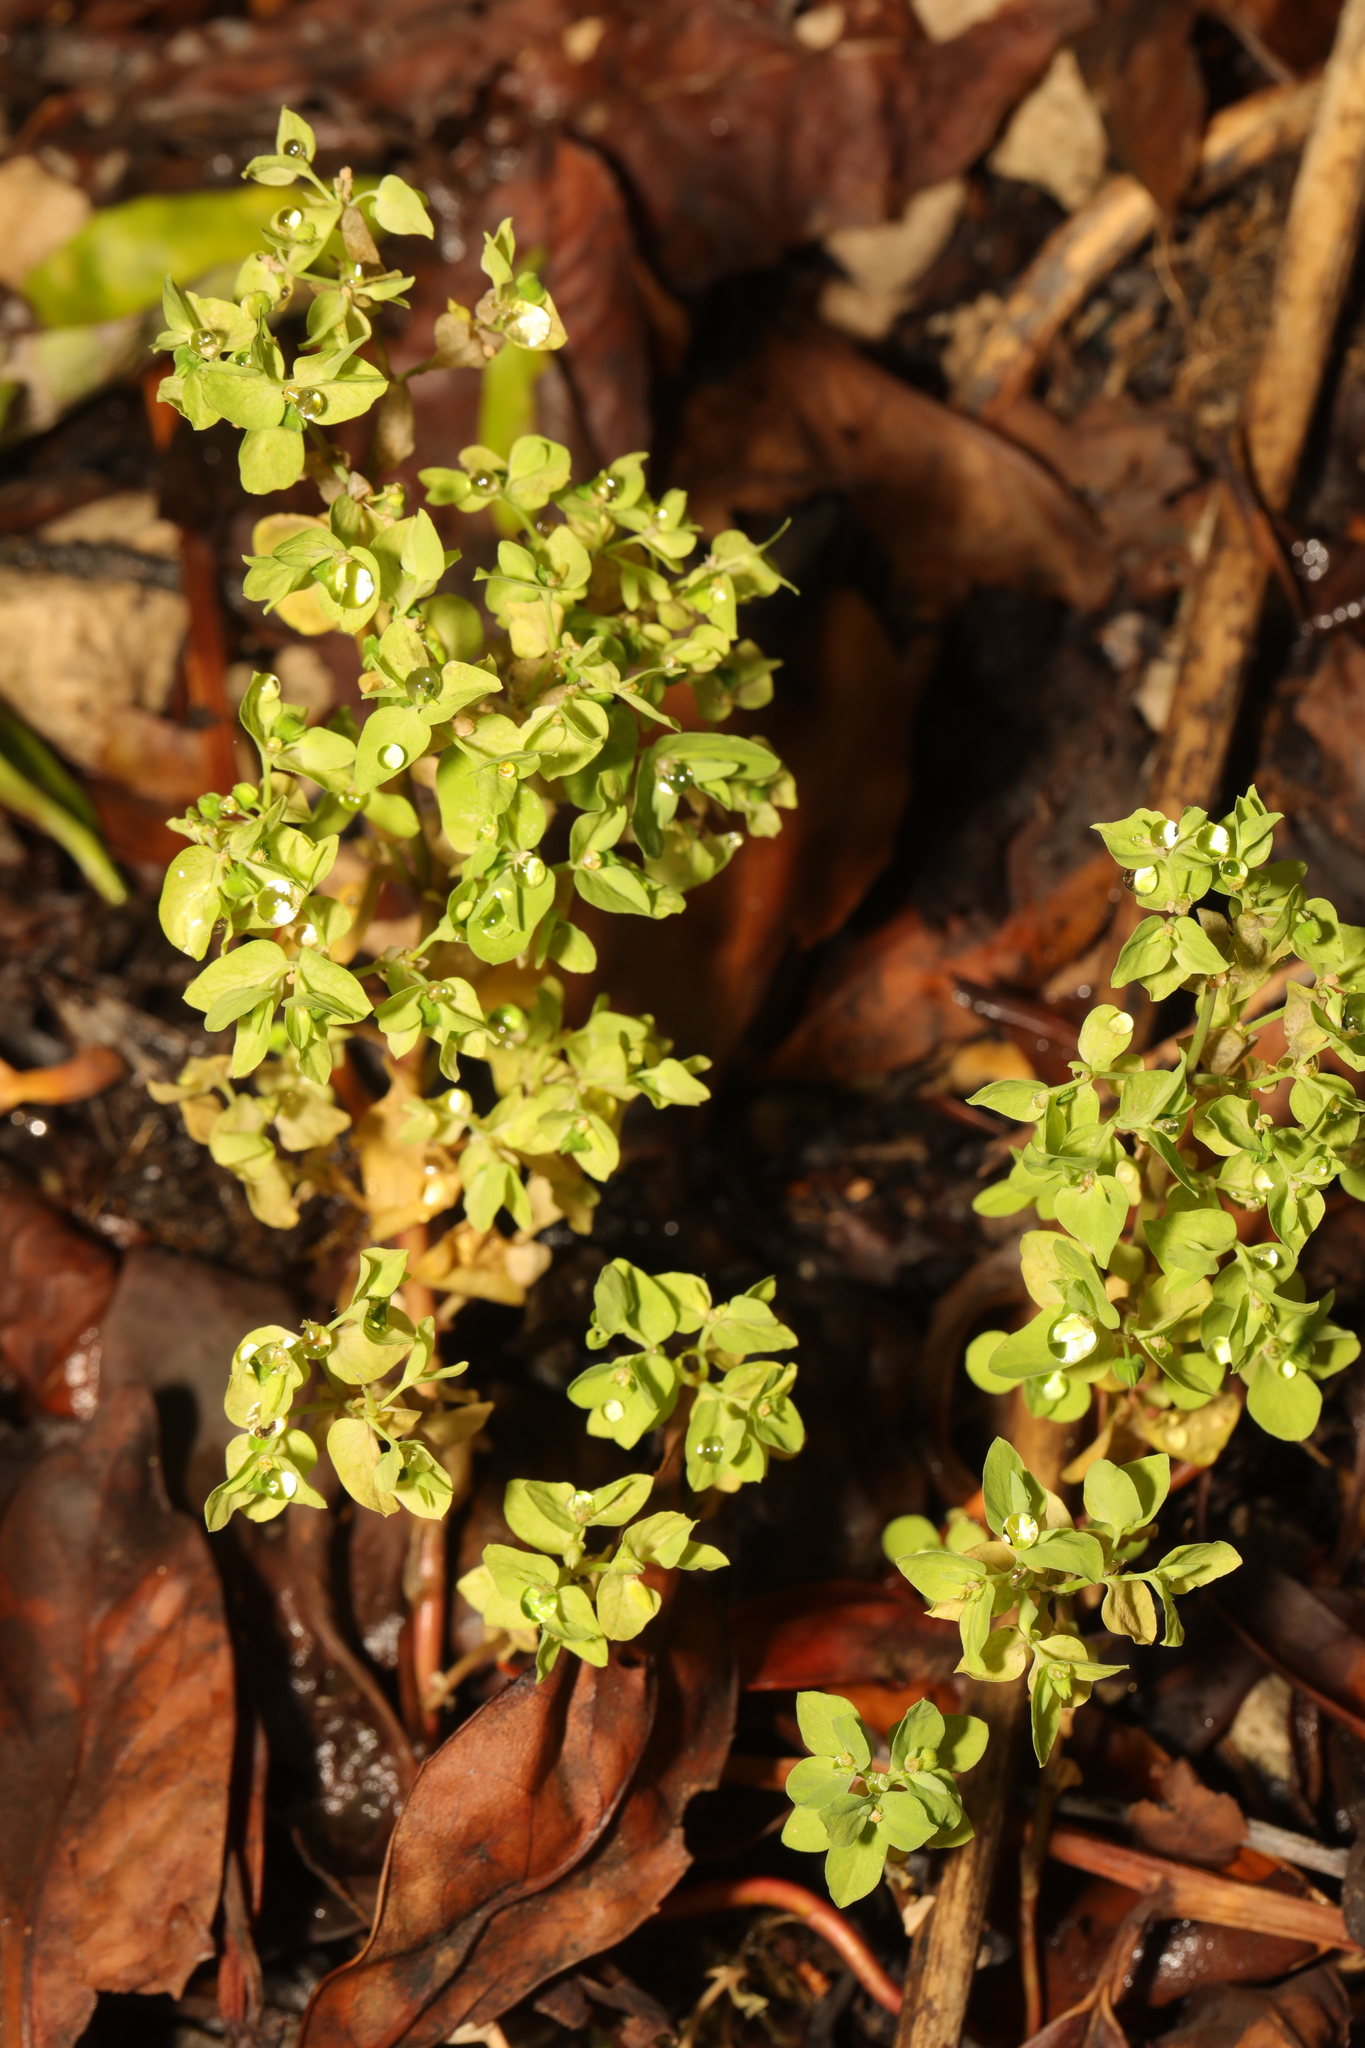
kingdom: Plantae
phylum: Tracheophyta
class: Magnoliopsida
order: Malpighiales
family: Euphorbiaceae
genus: Euphorbia
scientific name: Euphorbia peplus
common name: Petty spurge
